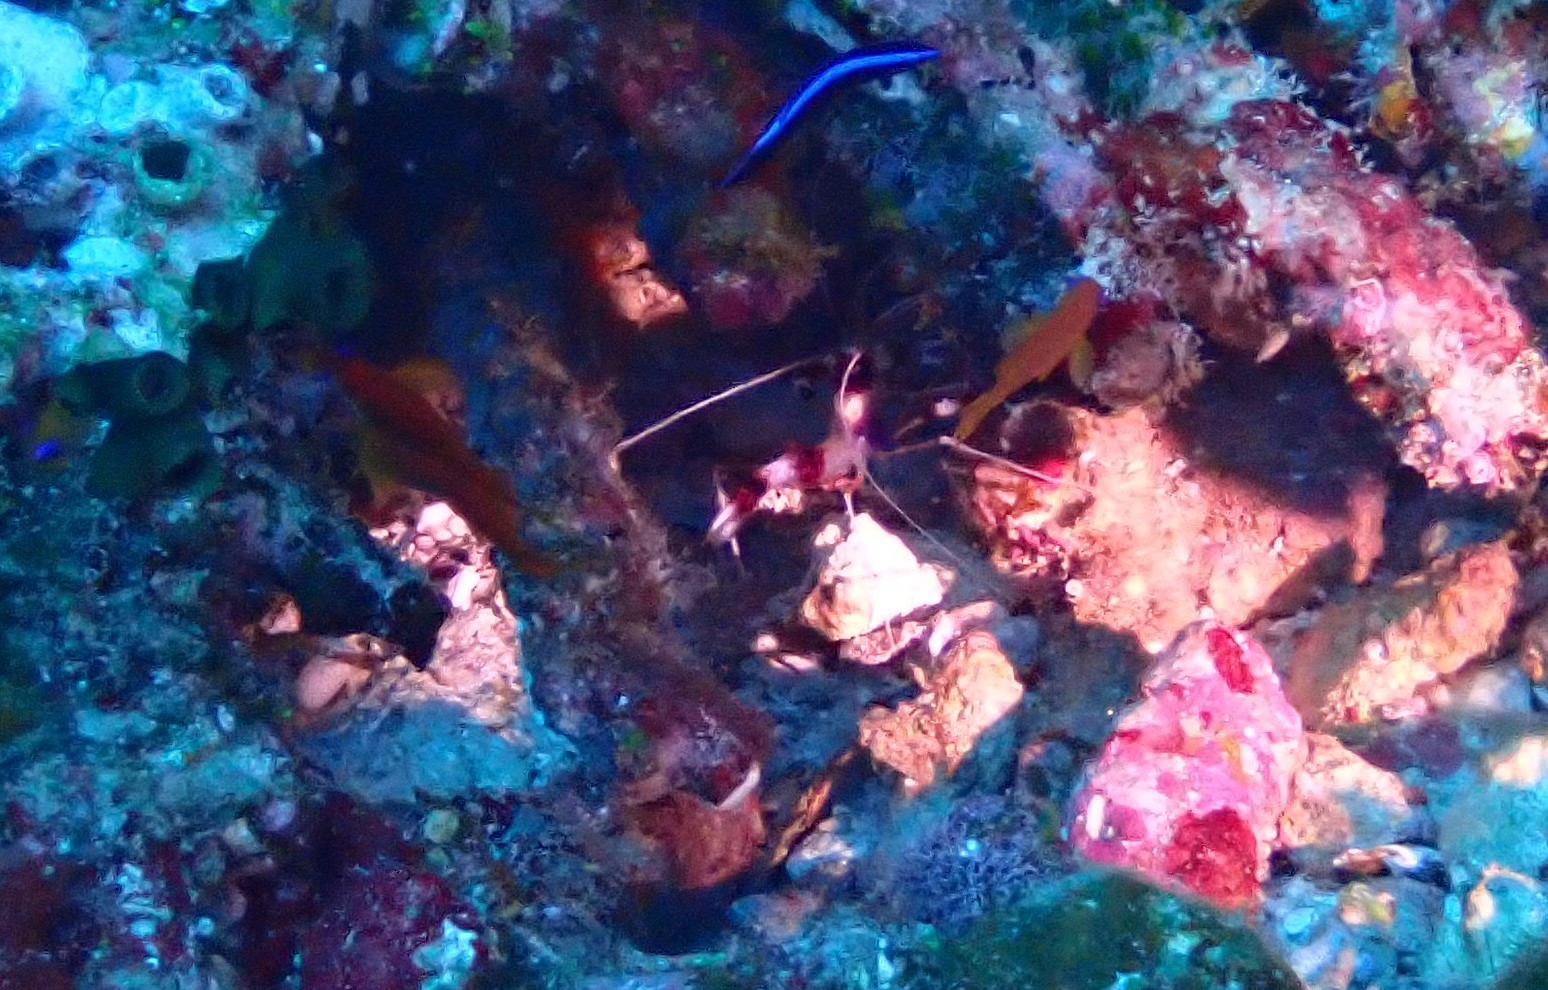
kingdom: Animalia
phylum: Arthropoda
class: Malacostraca
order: Decapoda
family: Stenopodidae
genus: Stenopus
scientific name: Stenopus hispidus
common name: Banded coral shrimp
